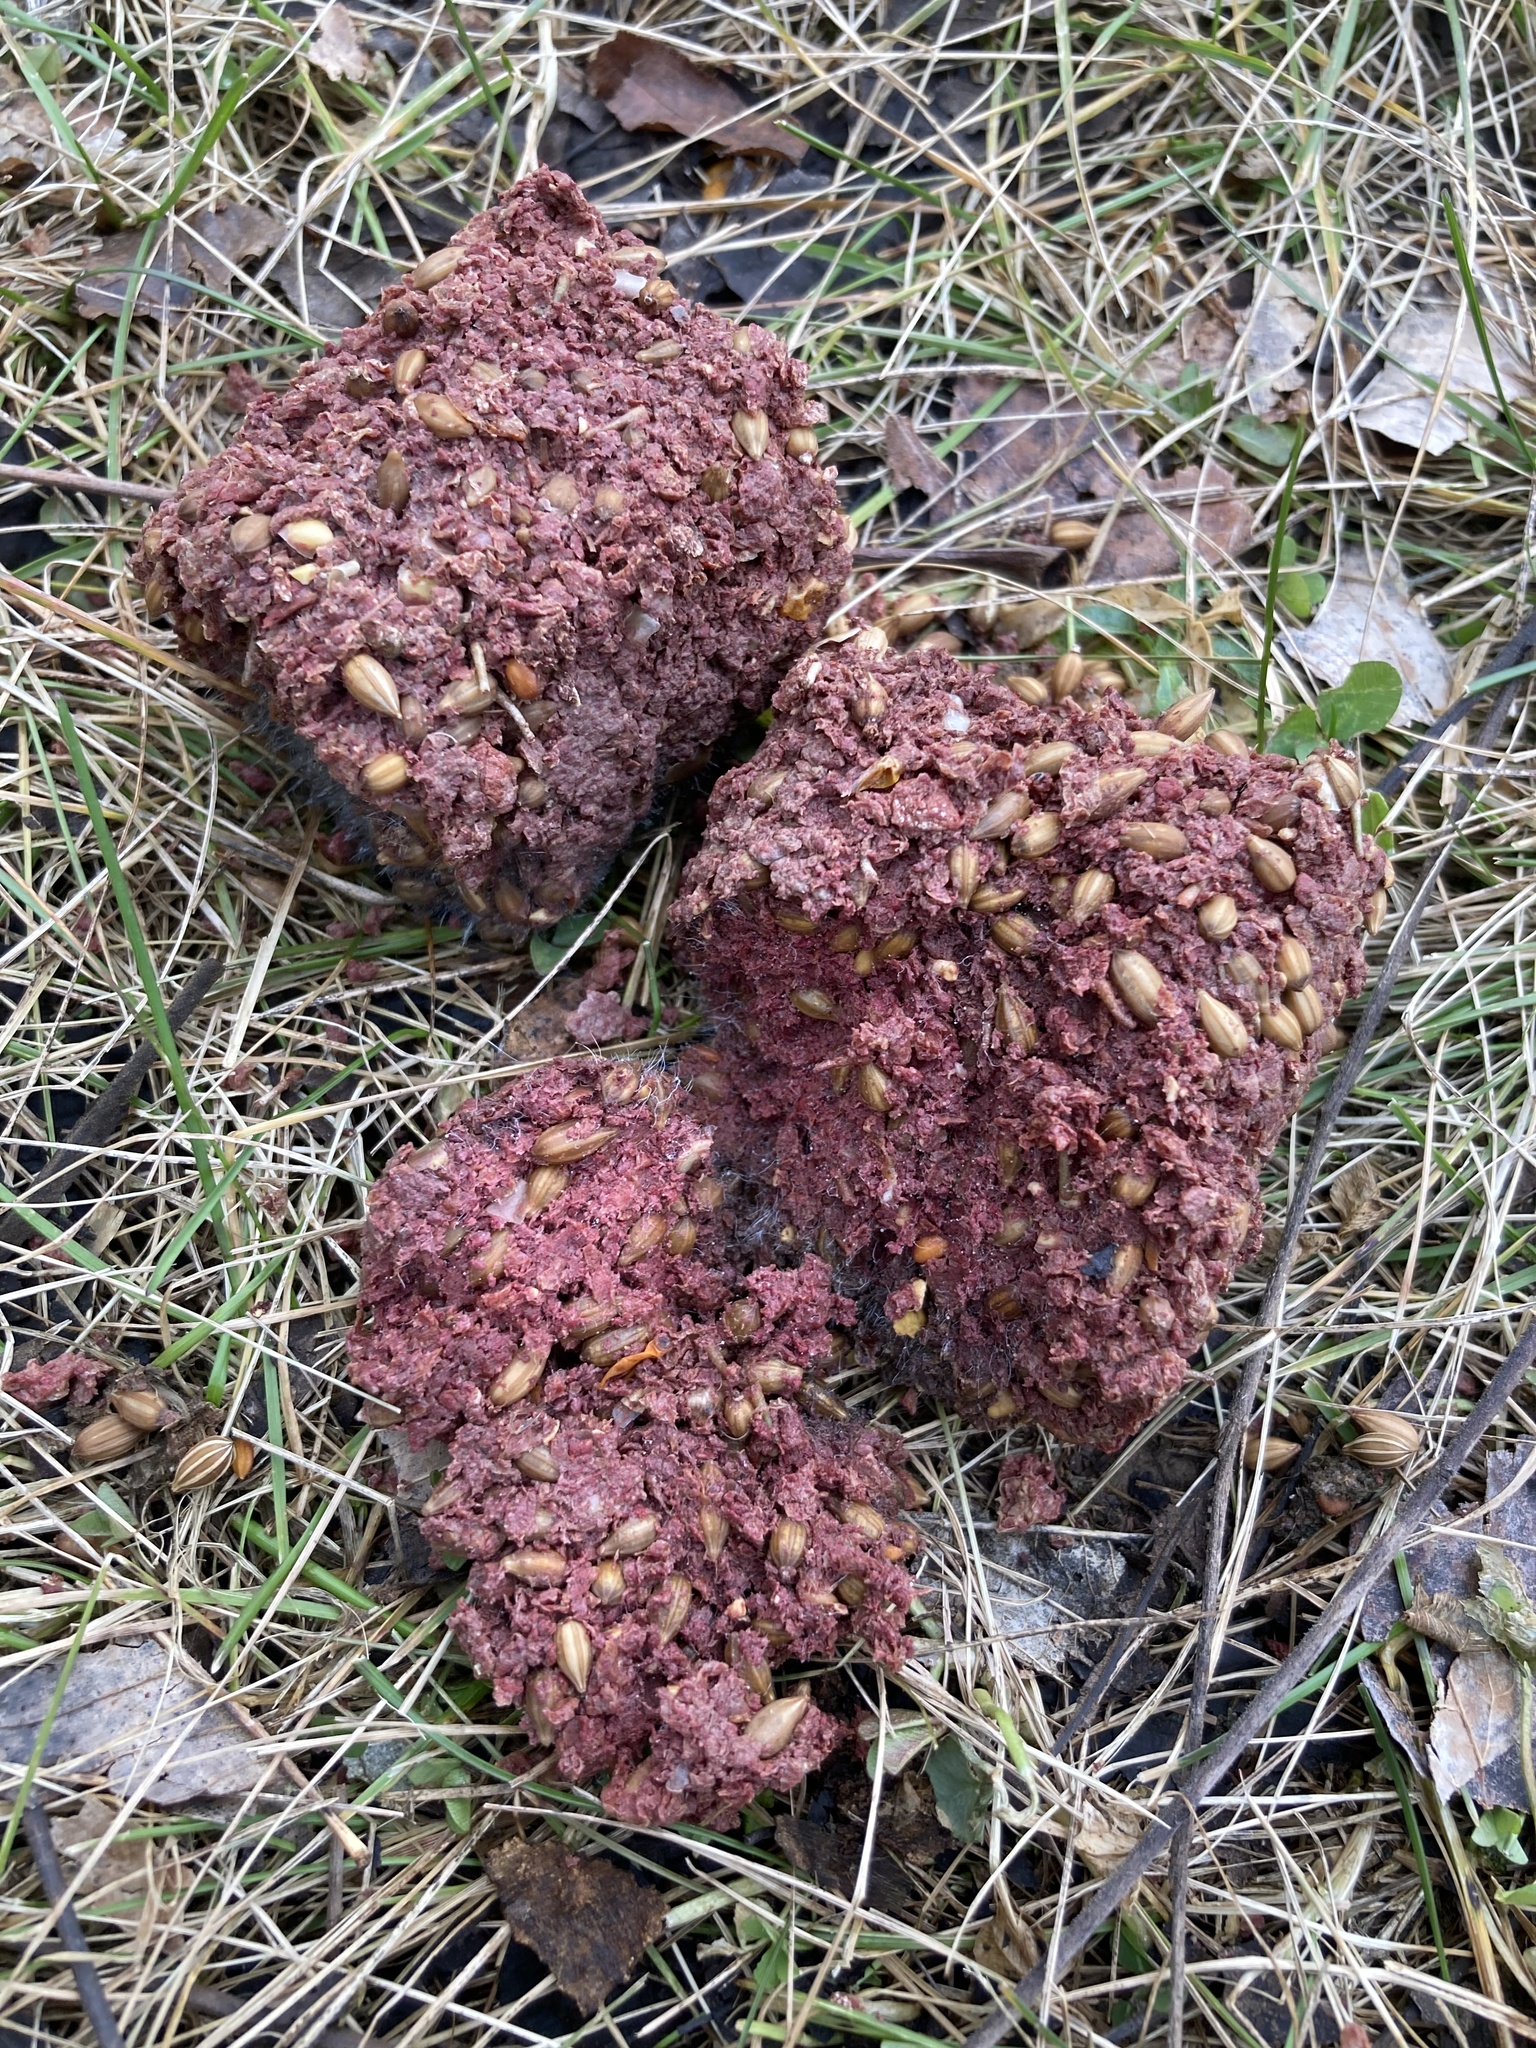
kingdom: Animalia
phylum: Chordata
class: Mammalia
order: Carnivora
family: Ursidae
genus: Ursus
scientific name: Ursus americanus
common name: American black bear
